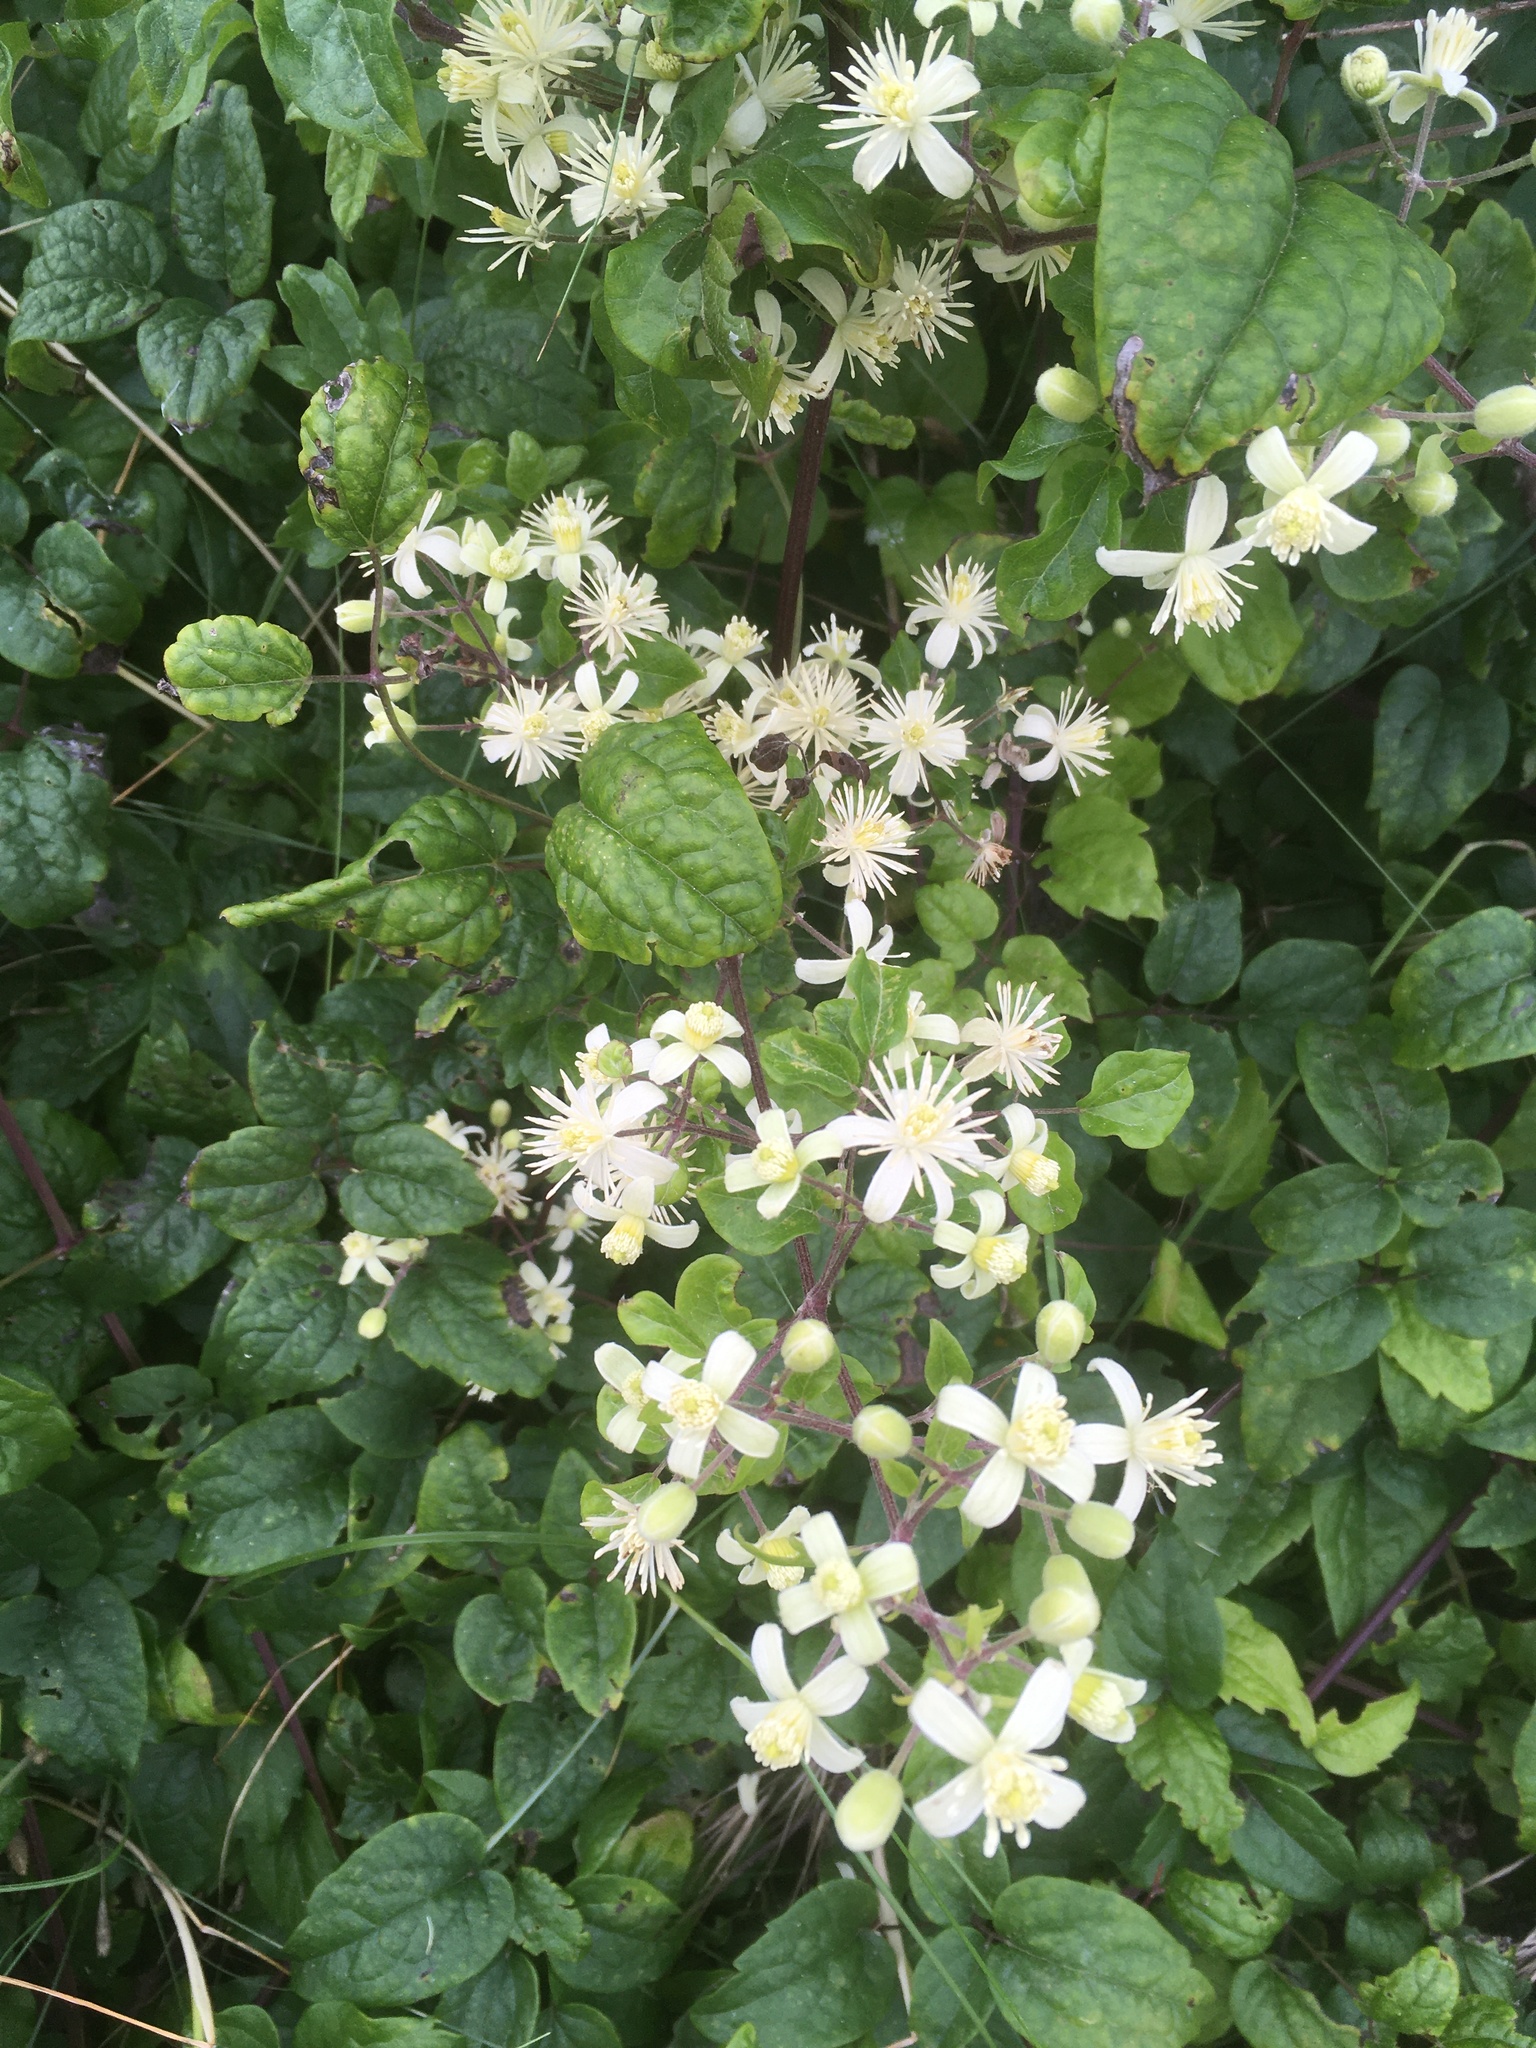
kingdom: Plantae
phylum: Tracheophyta
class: Magnoliopsida
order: Ranunculales
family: Ranunculaceae
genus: Clematis
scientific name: Clematis vitalba
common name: Evergreen clematis
